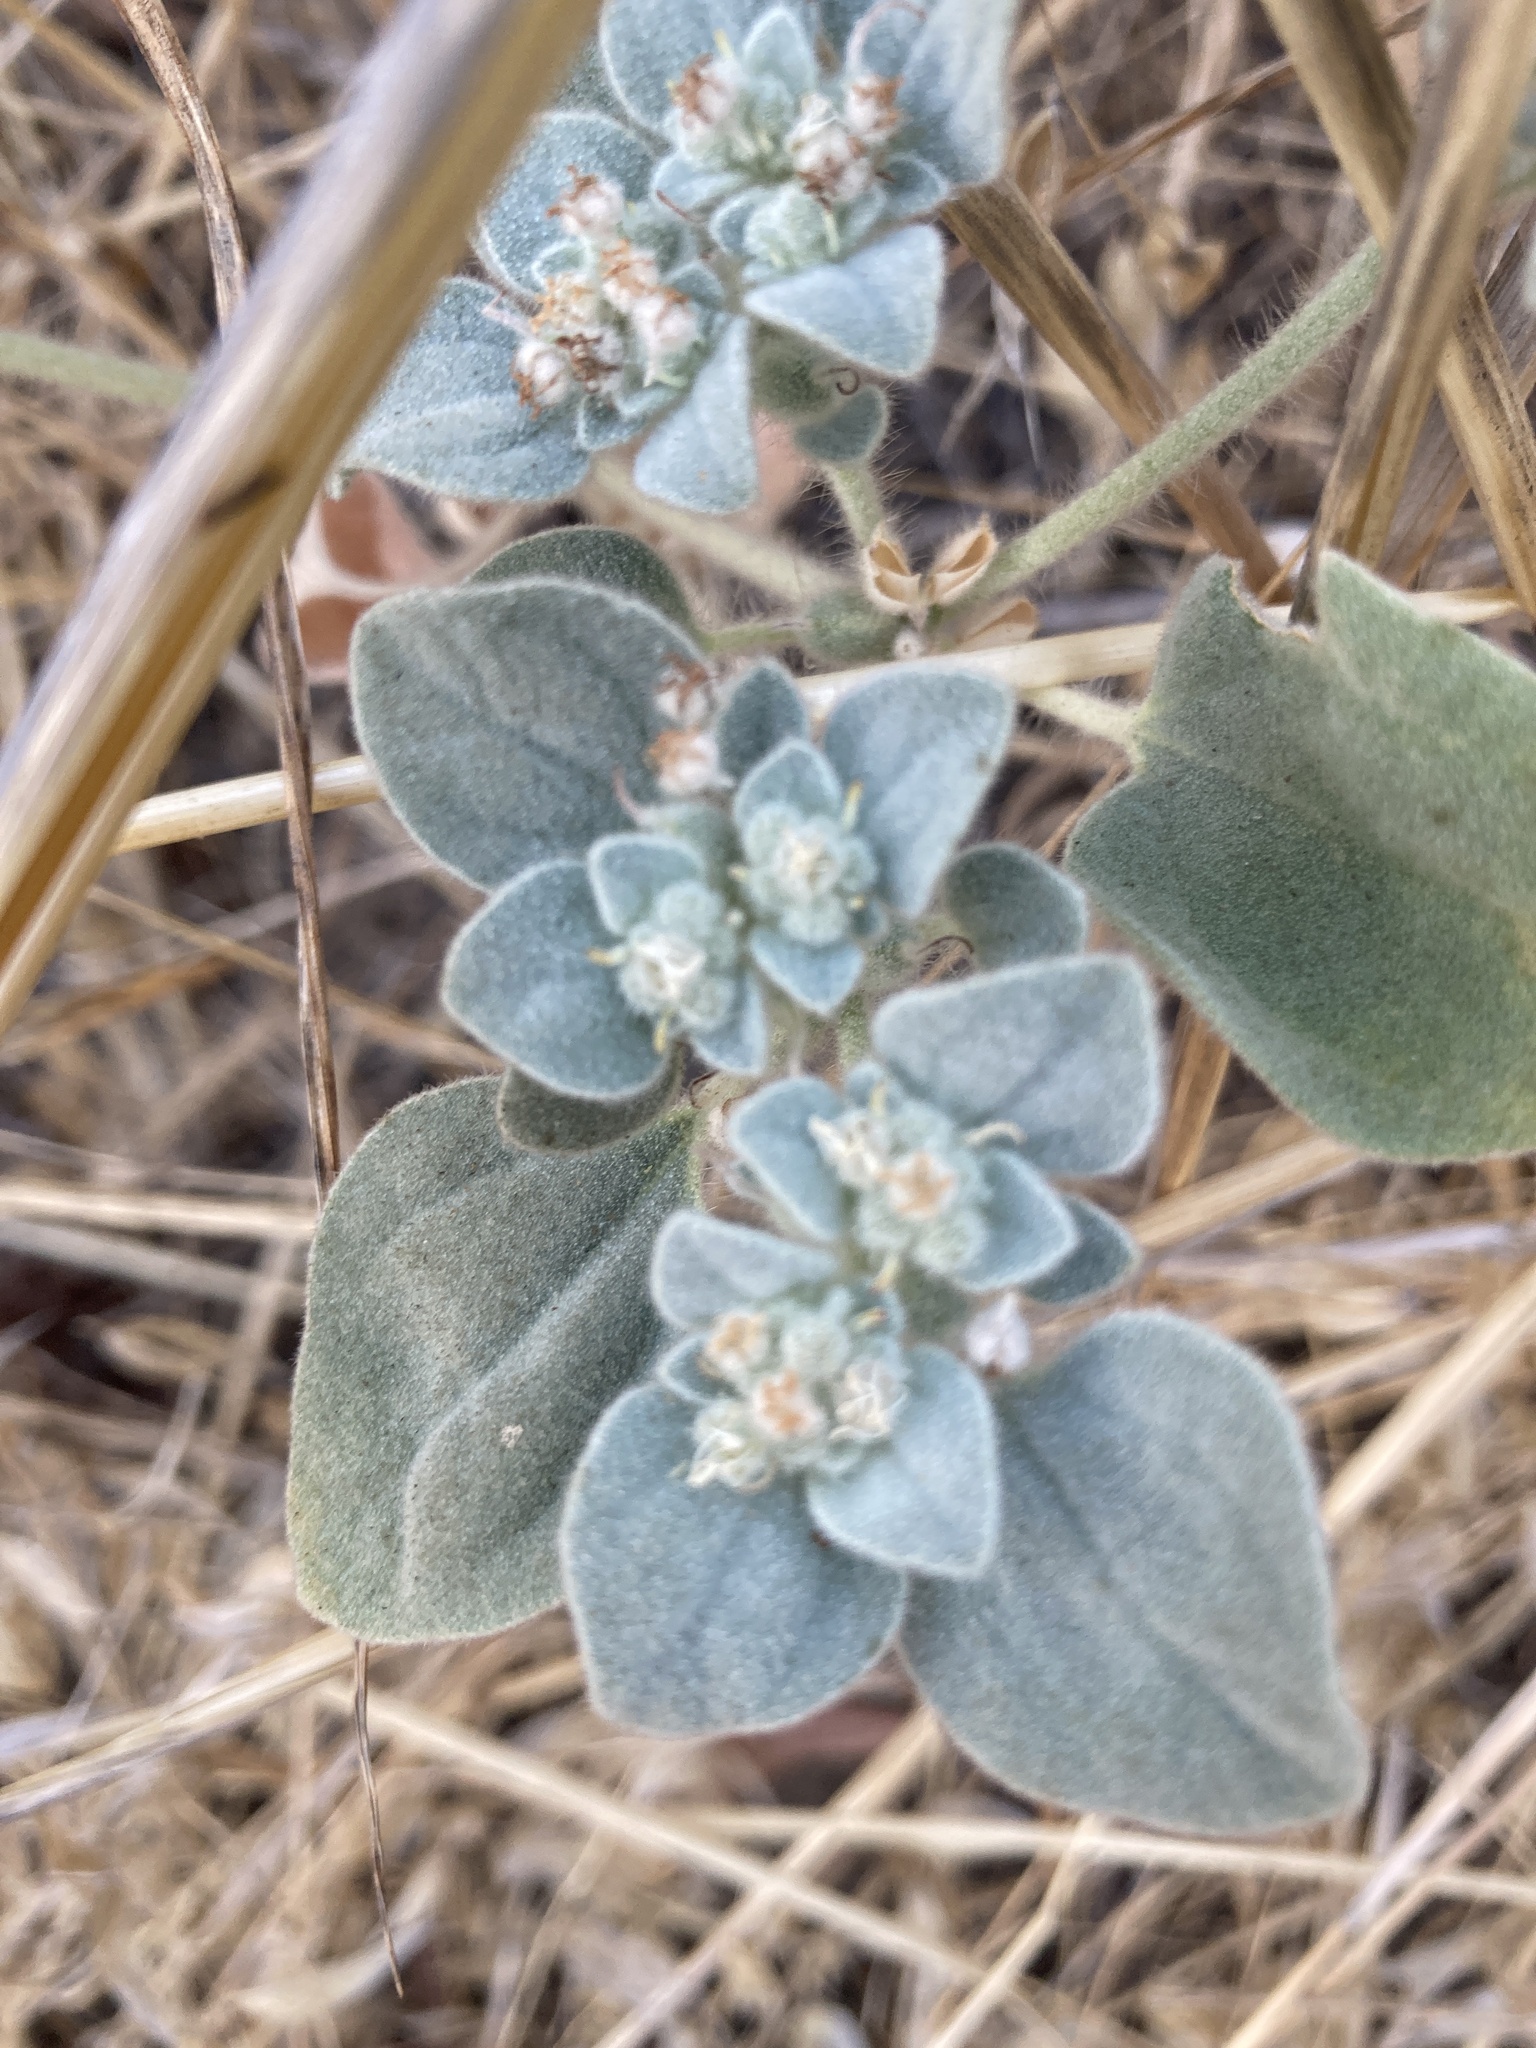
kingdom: Plantae
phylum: Tracheophyta
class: Magnoliopsida
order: Malpighiales
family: Euphorbiaceae
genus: Croton
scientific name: Croton setiger
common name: Dove weed
